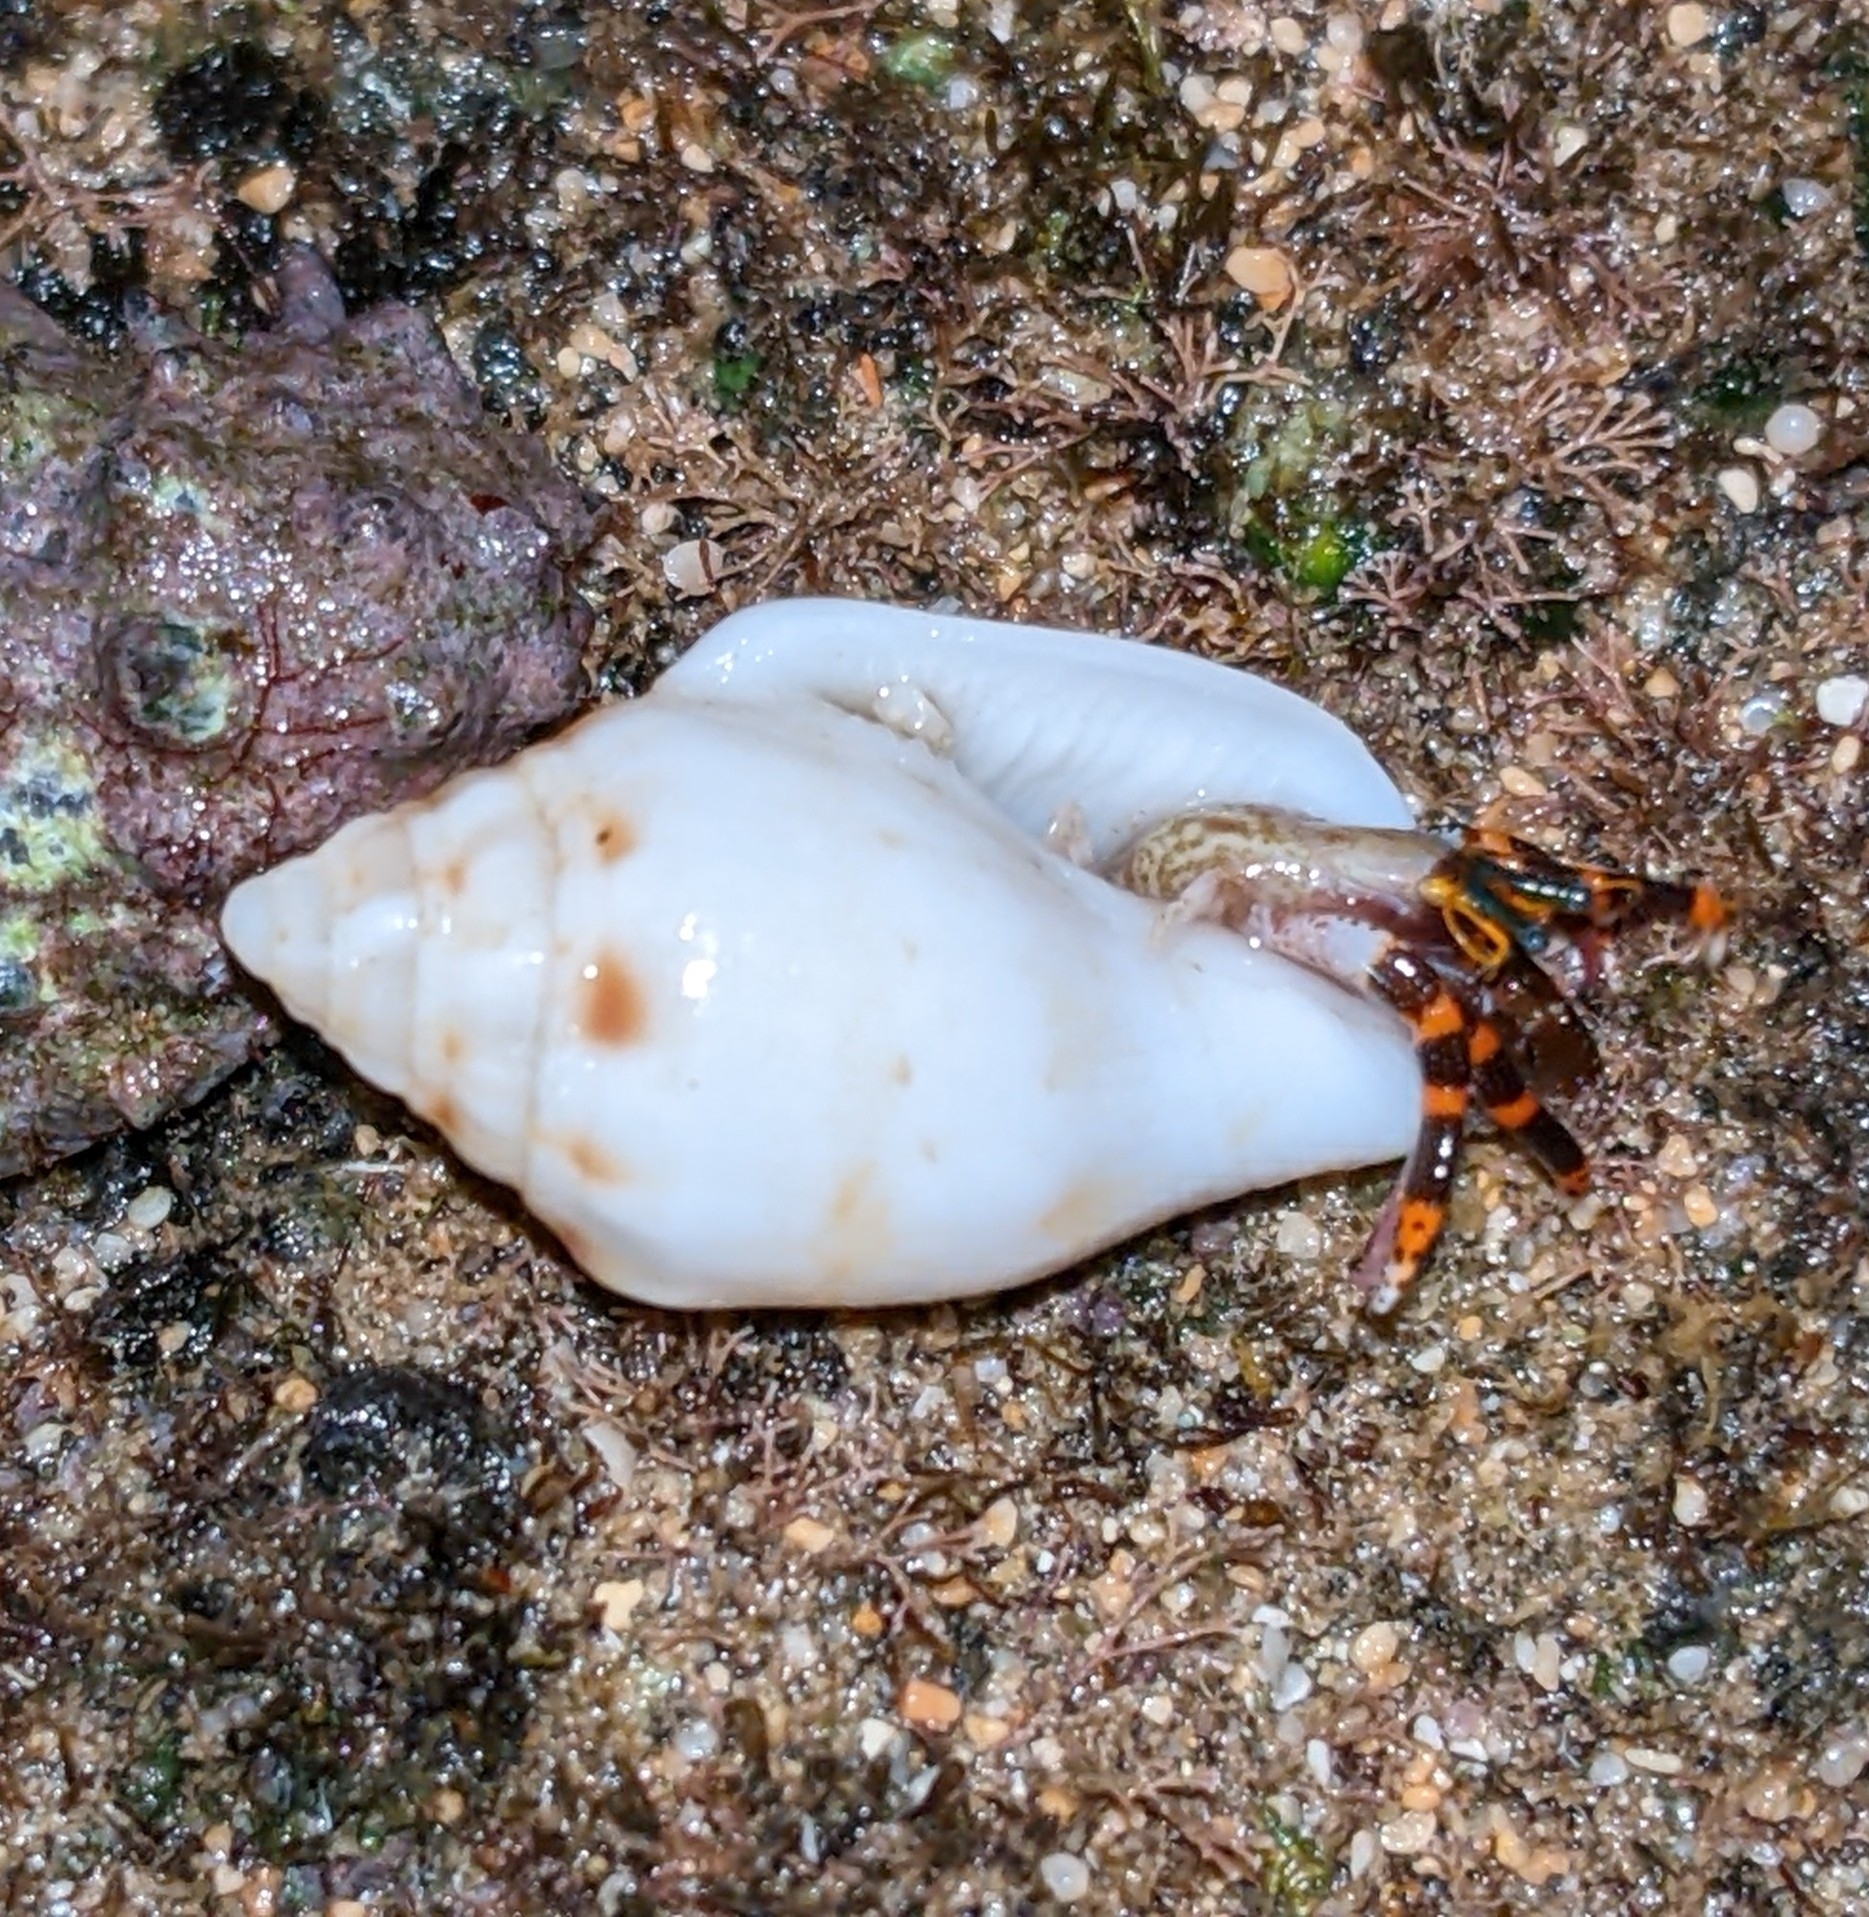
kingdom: Animalia
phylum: Mollusca
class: Gastropoda
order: Littorinimorpha
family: Strombidae
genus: Maculastrombus
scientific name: Maculastrombus maculatus
